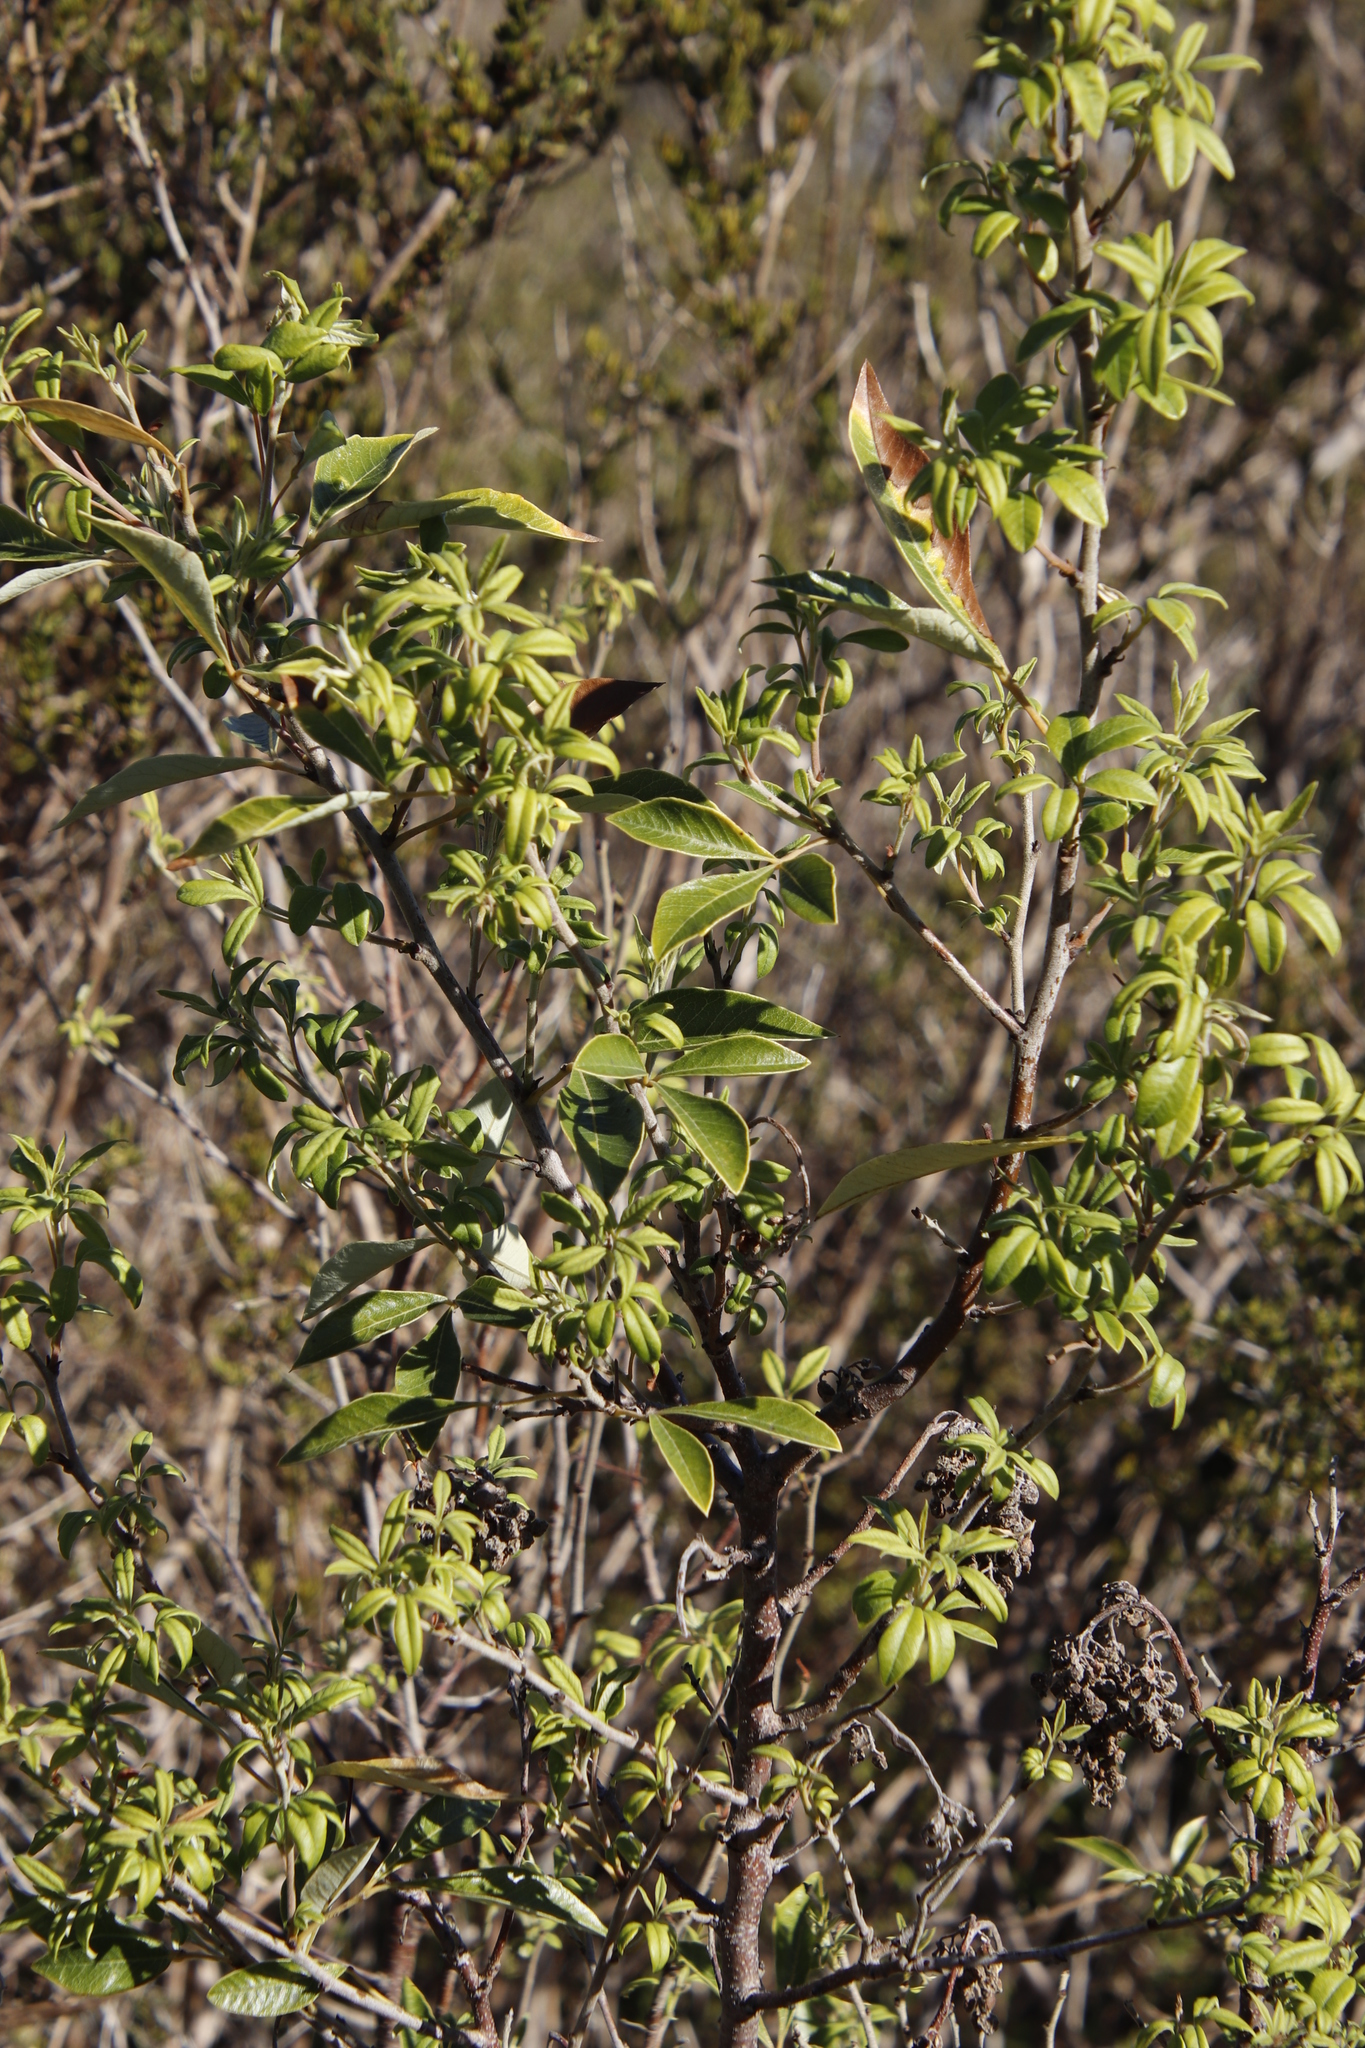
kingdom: Plantae
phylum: Tracheophyta
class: Magnoliopsida
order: Sapindales
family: Anacardiaceae
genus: Searsia
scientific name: Searsia tomentosa
